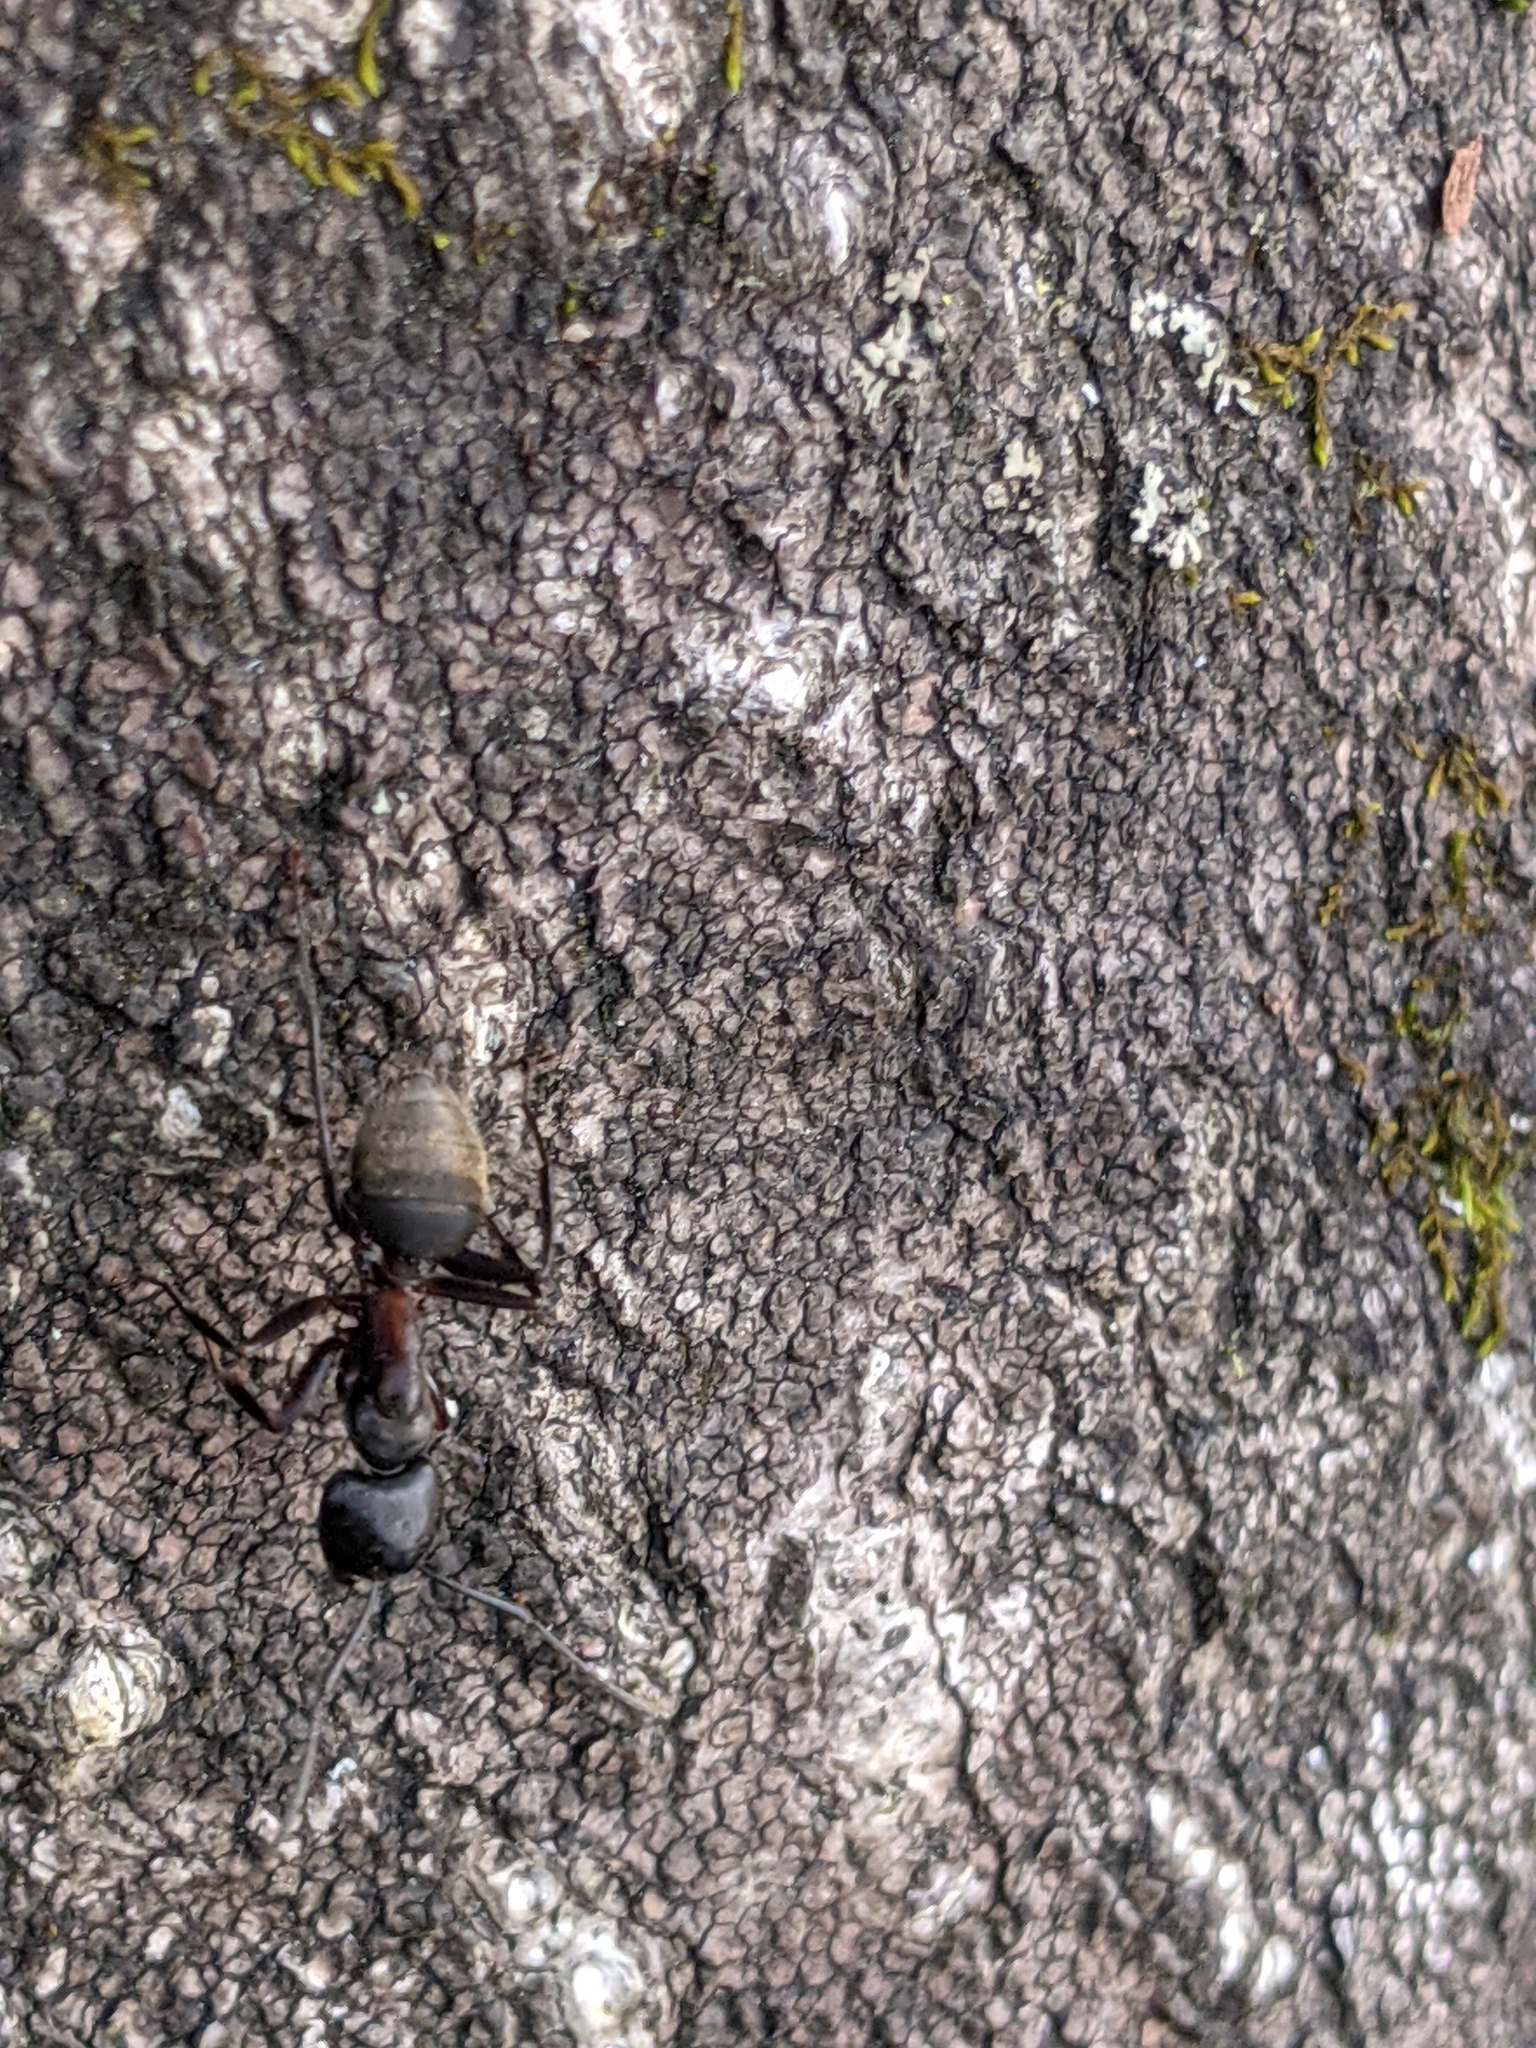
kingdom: Animalia
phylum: Arthropoda
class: Insecta
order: Hymenoptera
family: Formicidae
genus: Camponotus
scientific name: Camponotus chromaiodes
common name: Red carpenter ant
